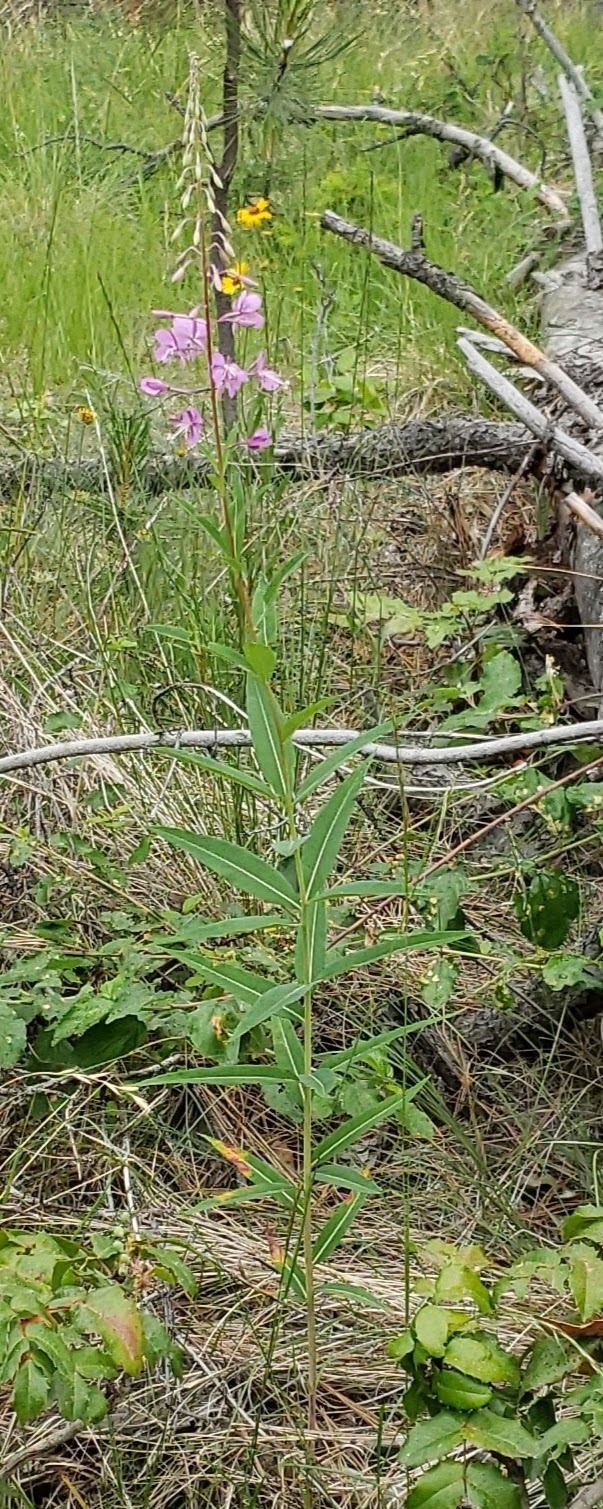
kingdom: Plantae
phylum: Tracheophyta
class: Magnoliopsida
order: Myrtales
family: Onagraceae
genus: Chamaenerion
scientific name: Chamaenerion angustifolium
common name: Fireweed
